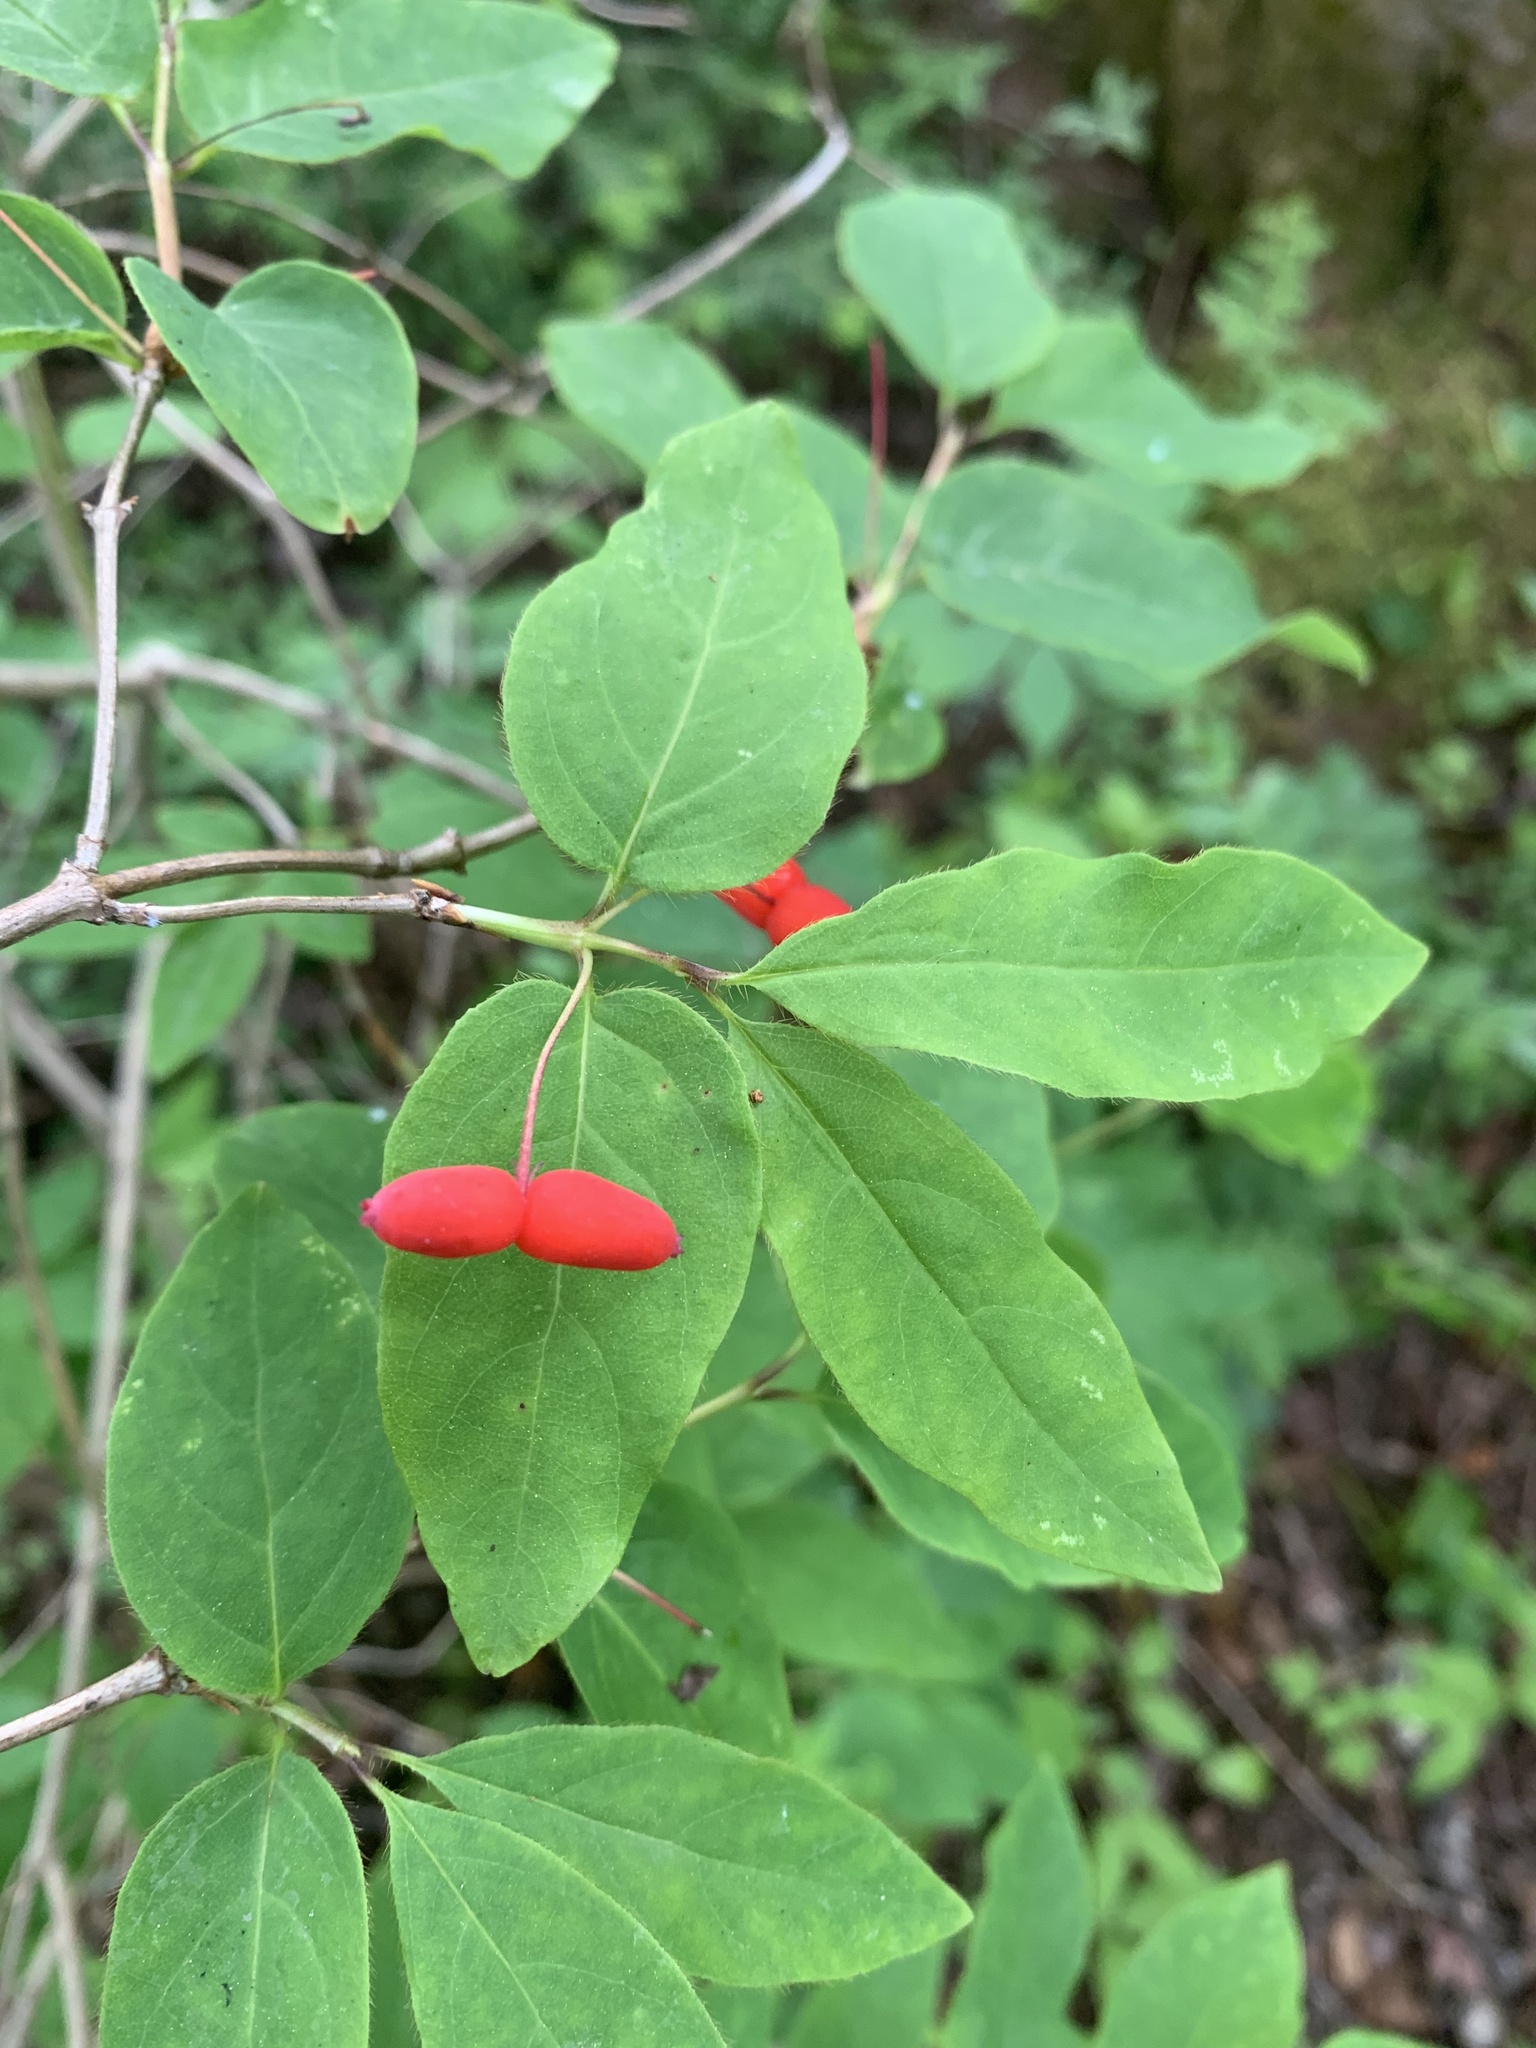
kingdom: Plantae
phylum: Tracheophyta
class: Magnoliopsida
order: Dipsacales
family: Caprifoliaceae
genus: Lonicera
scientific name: Lonicera canadensis
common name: American fly-honeysuckle
